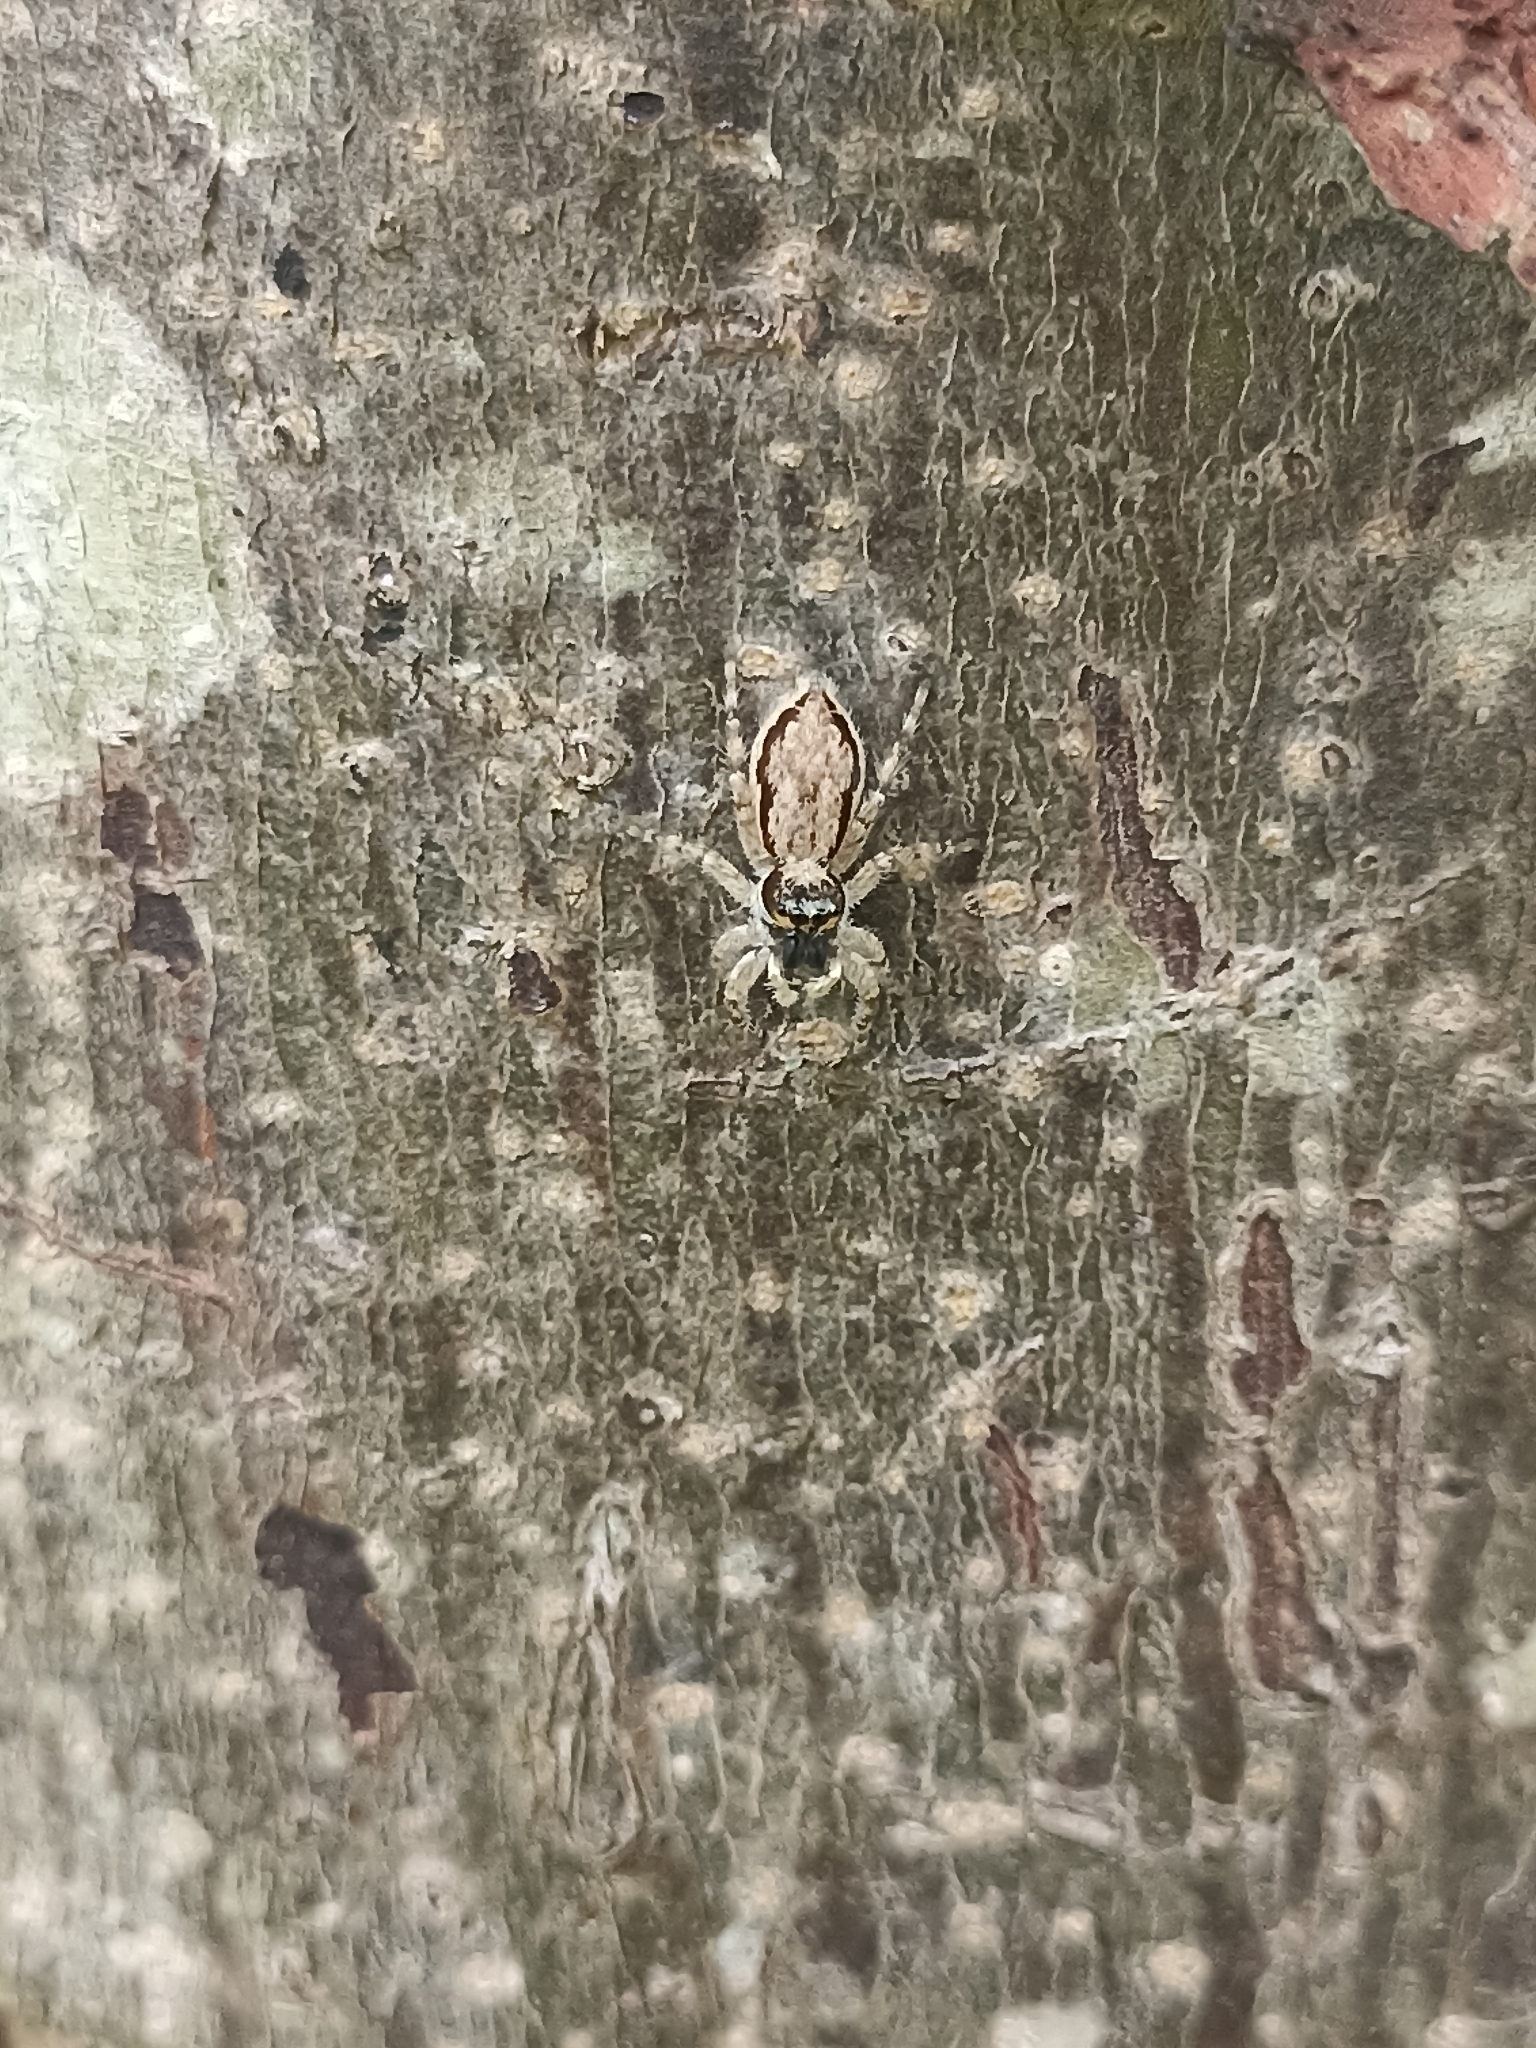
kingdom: Animalia
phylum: Arthropoda
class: Arachnida
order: Araneae
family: Salticidae
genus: Menemerus
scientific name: Menemerus bivittatus
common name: Gray wall jumper
